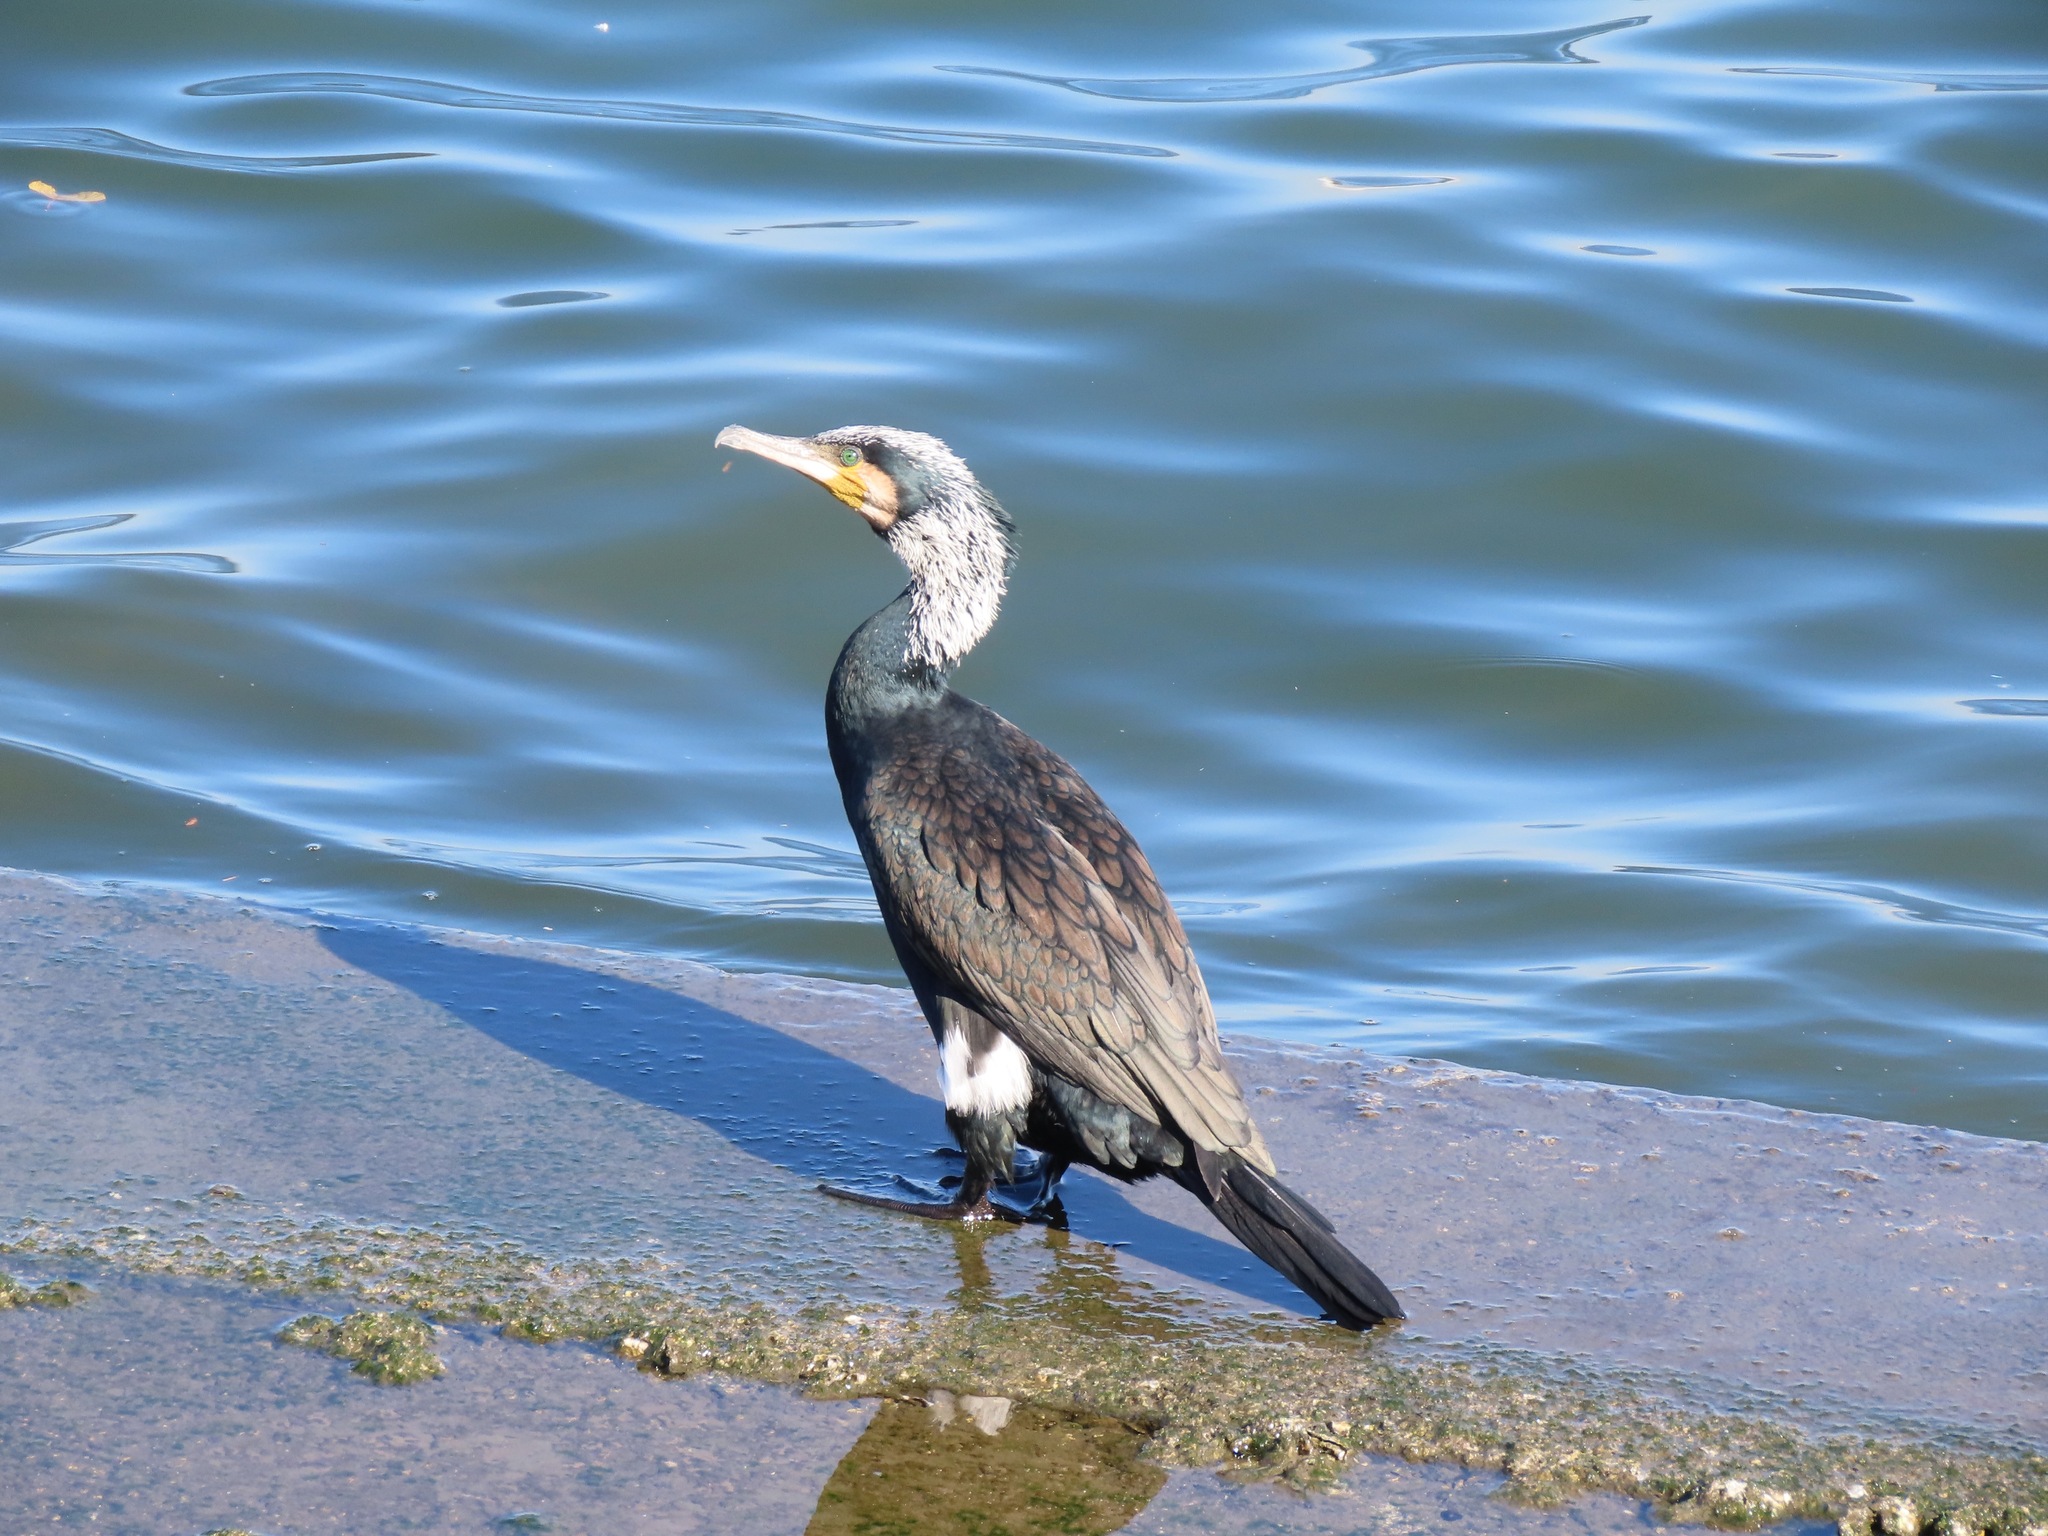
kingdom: Animalia
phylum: Chordata
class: Aves
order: Suliformes
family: Phalacrocoracidae
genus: Phalacrocorax
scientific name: Phalacrocorax carbo
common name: Great cormorant
